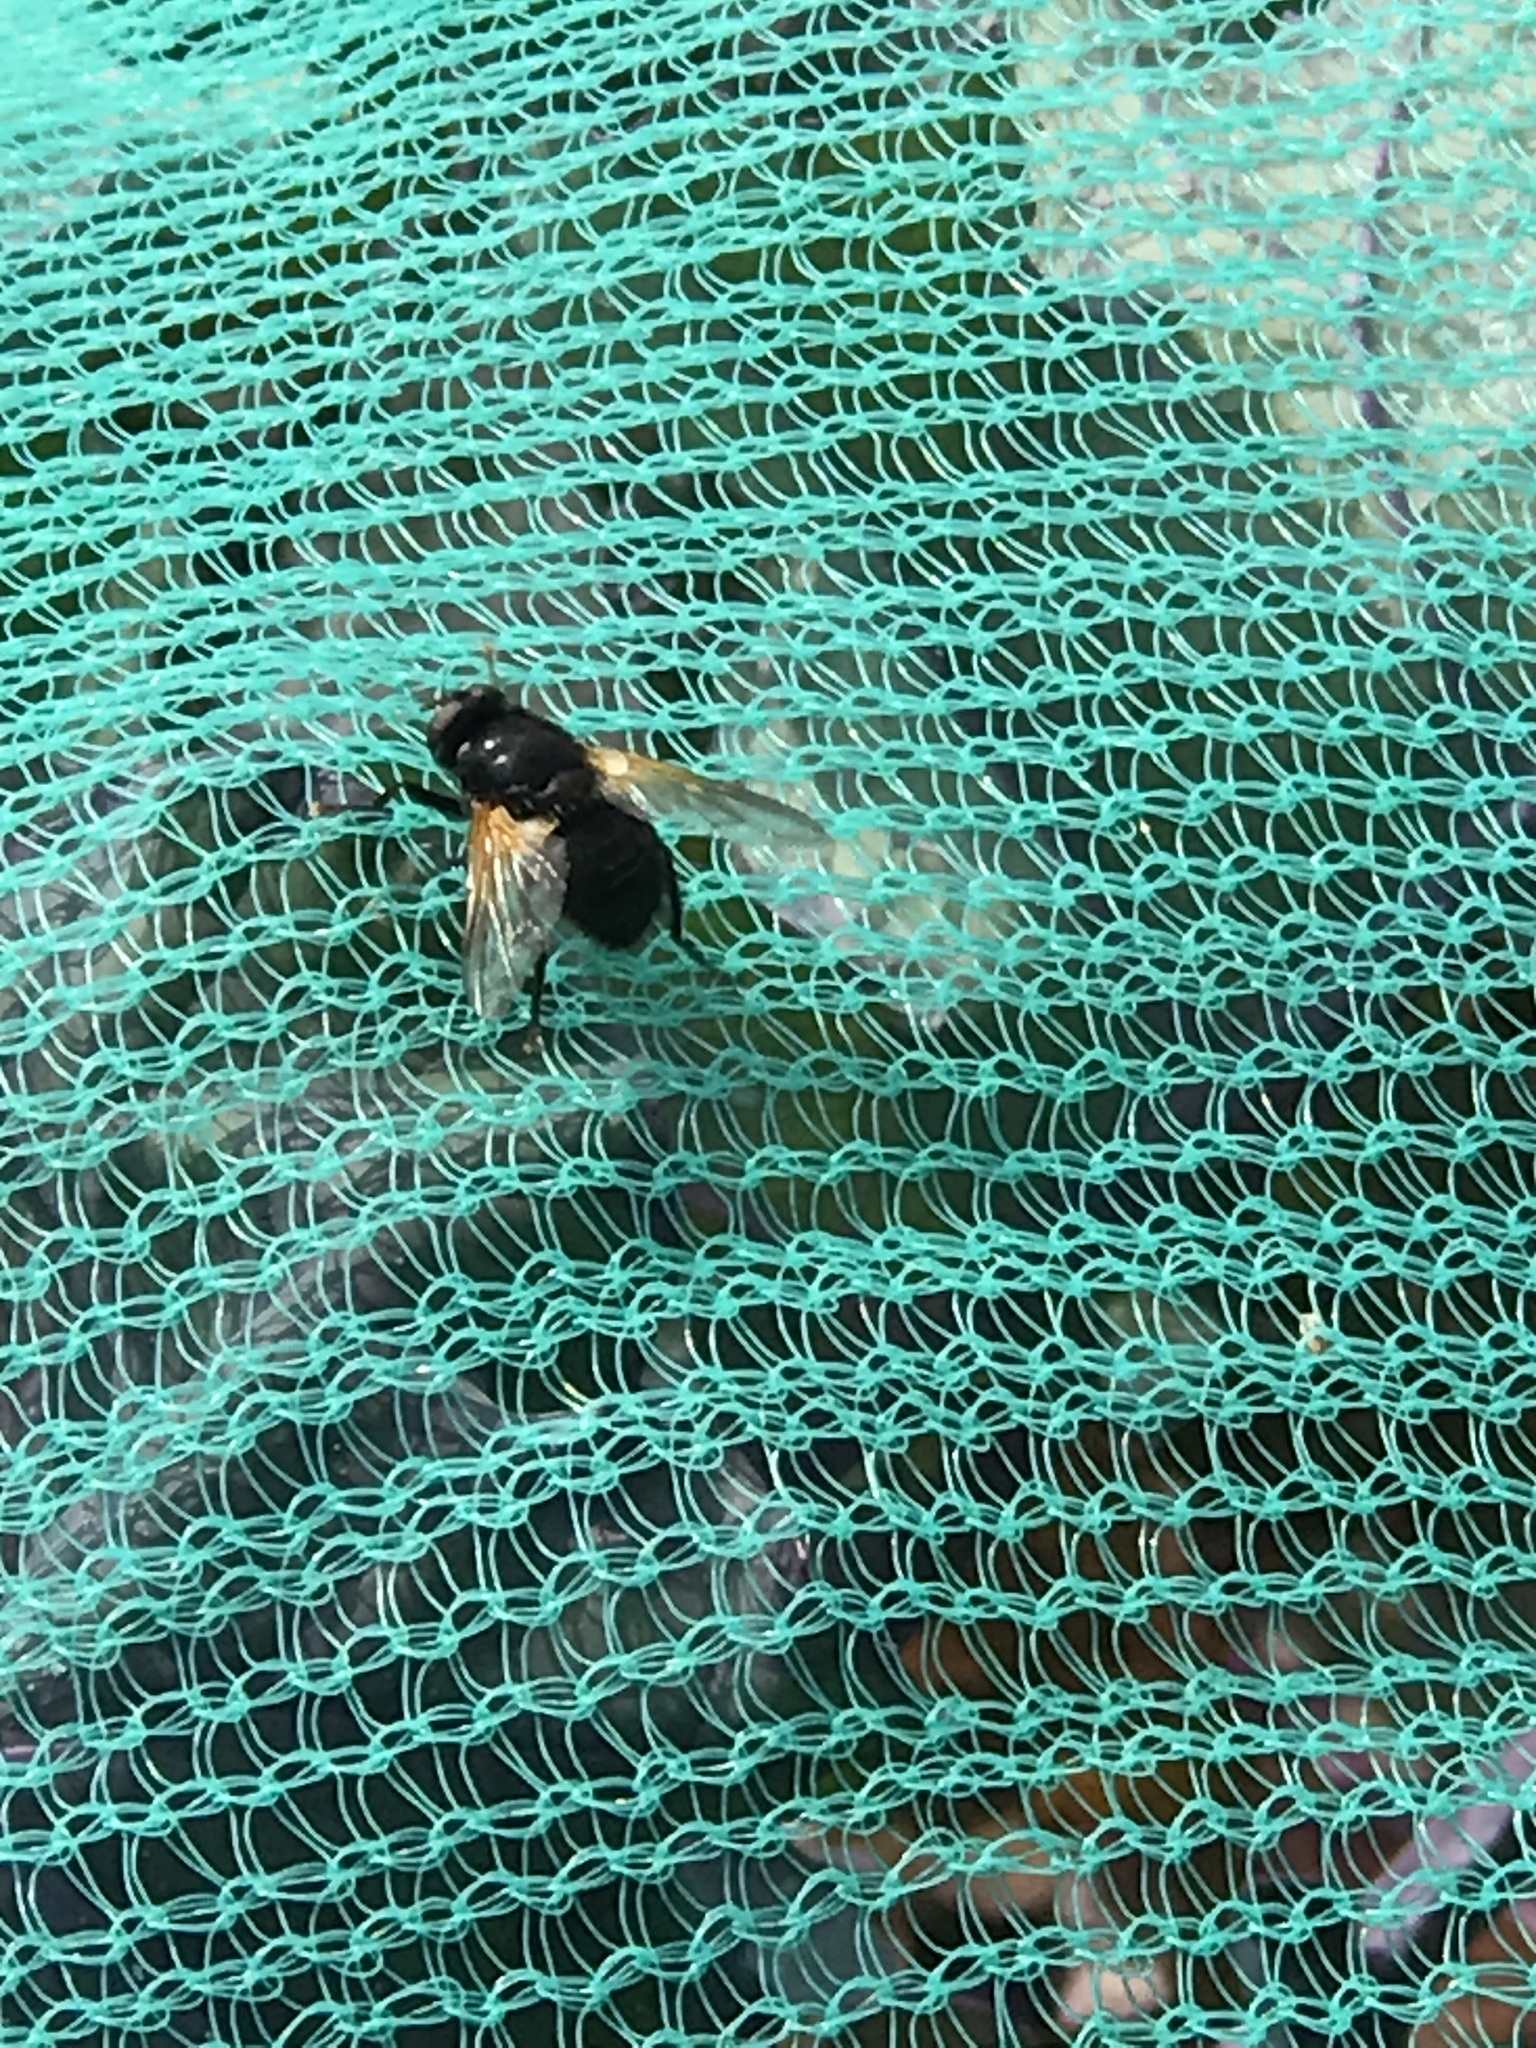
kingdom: Animalia
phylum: Arthropoda
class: Insecta
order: Diptera
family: Muscidae
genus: Mesembrina
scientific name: Mesembrina meridiana
